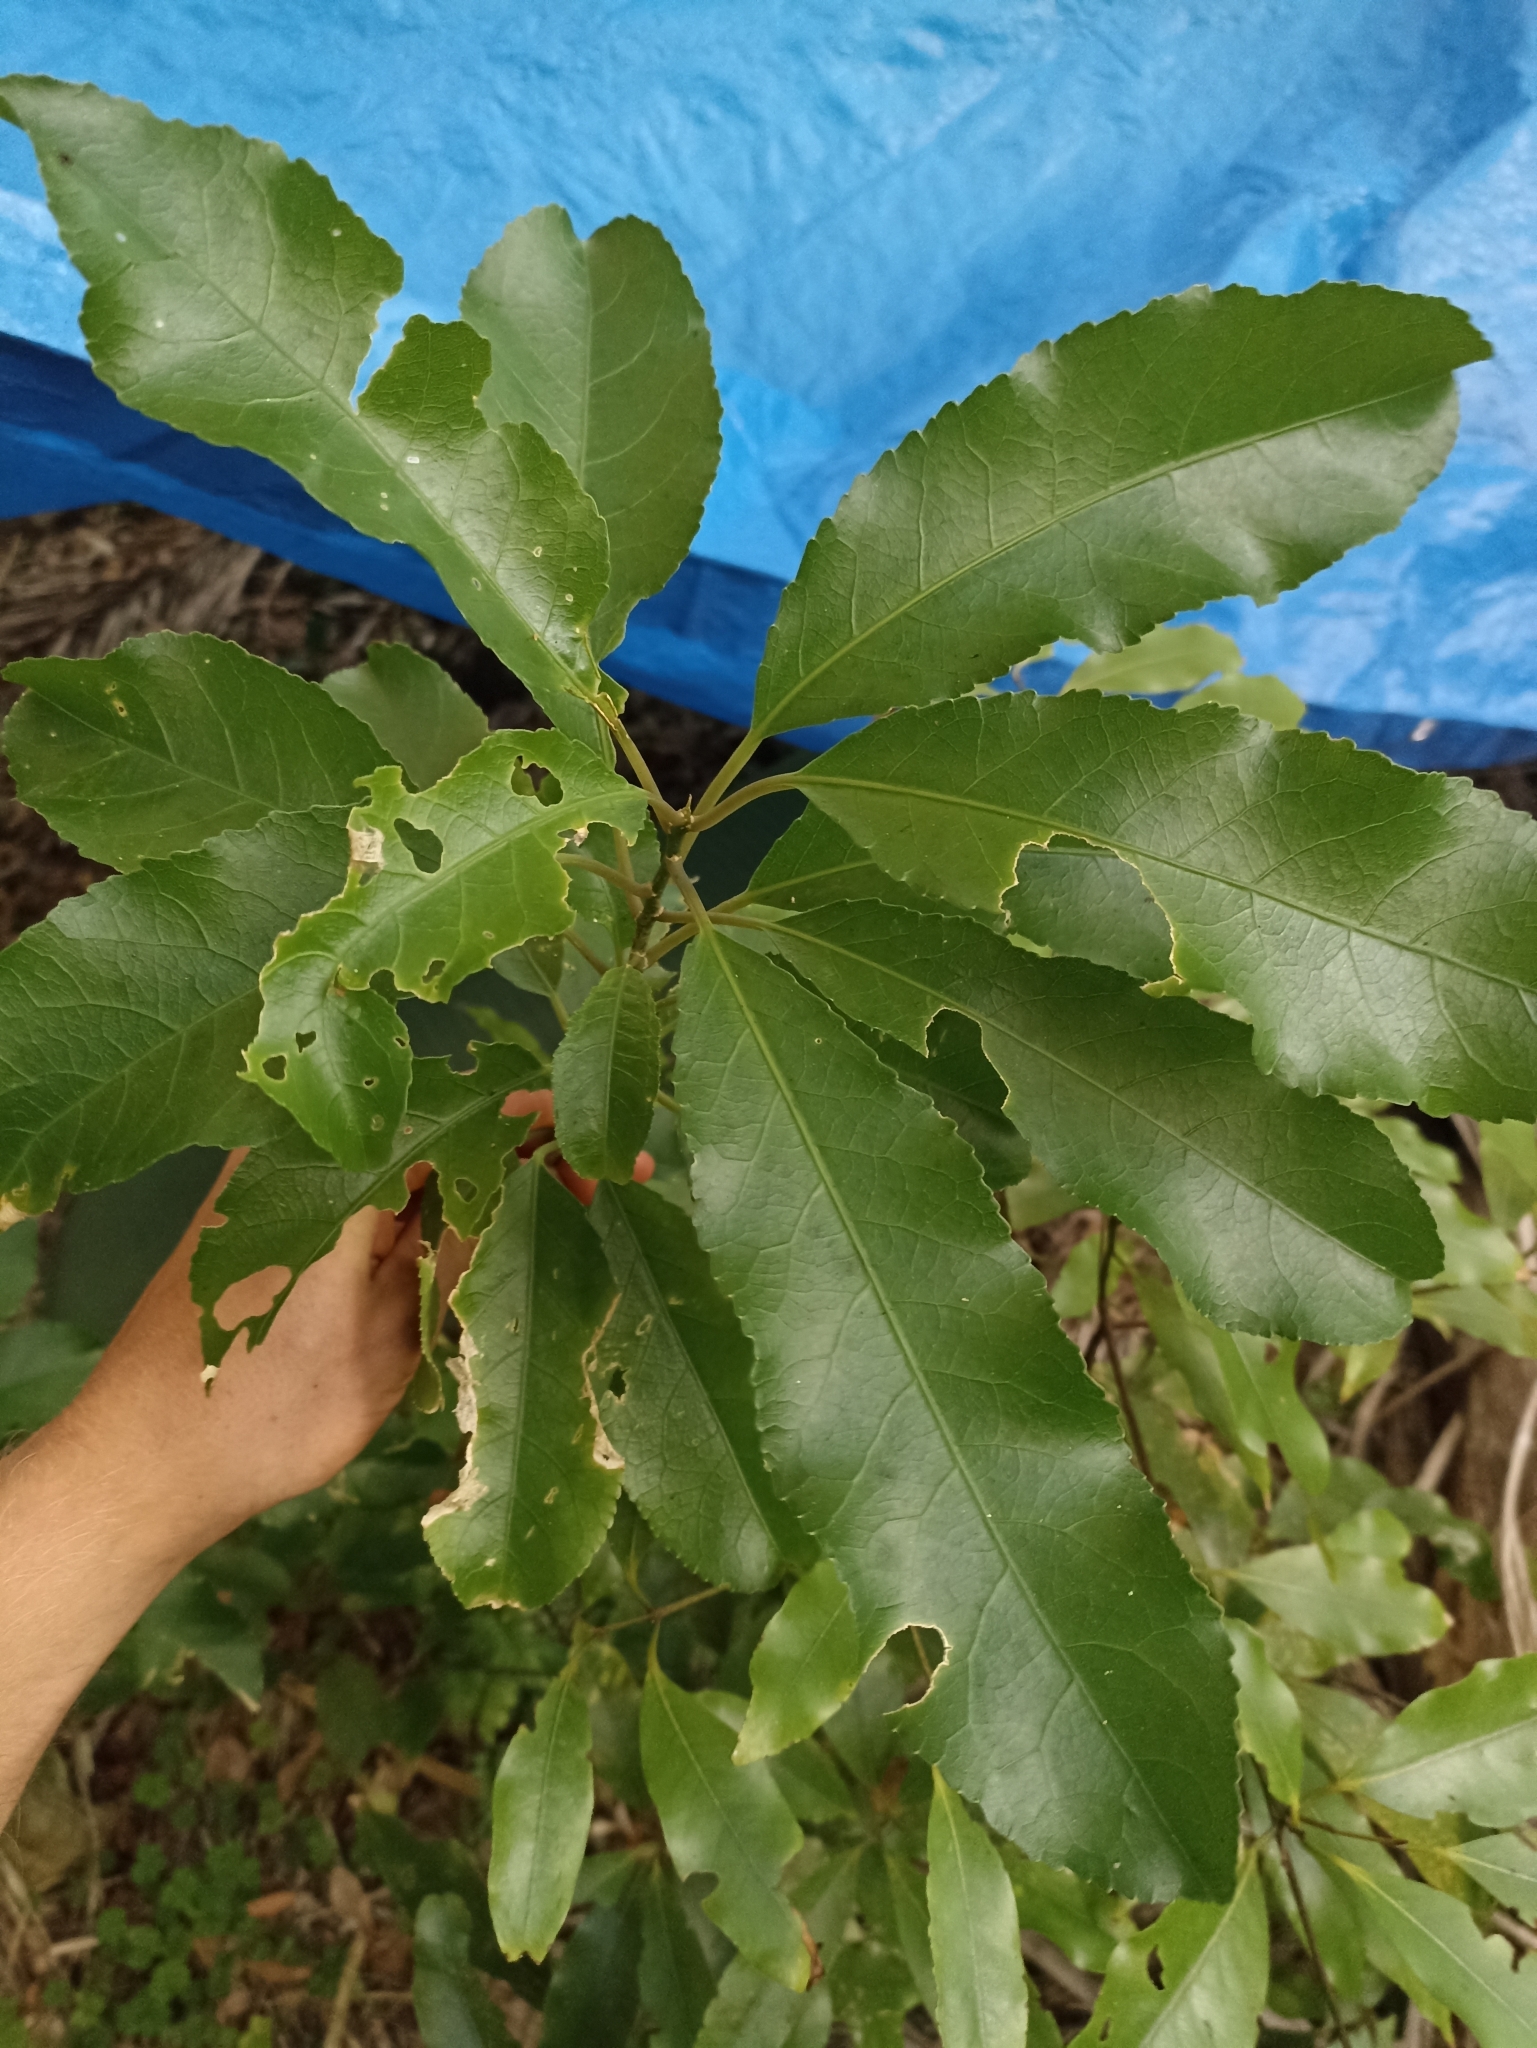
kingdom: Plantae
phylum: Tracheophyta
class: Magnoliopsida
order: Malpighiales
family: Violaceae
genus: Melicytus
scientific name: Melicytus ramiflorus
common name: Mahoe
